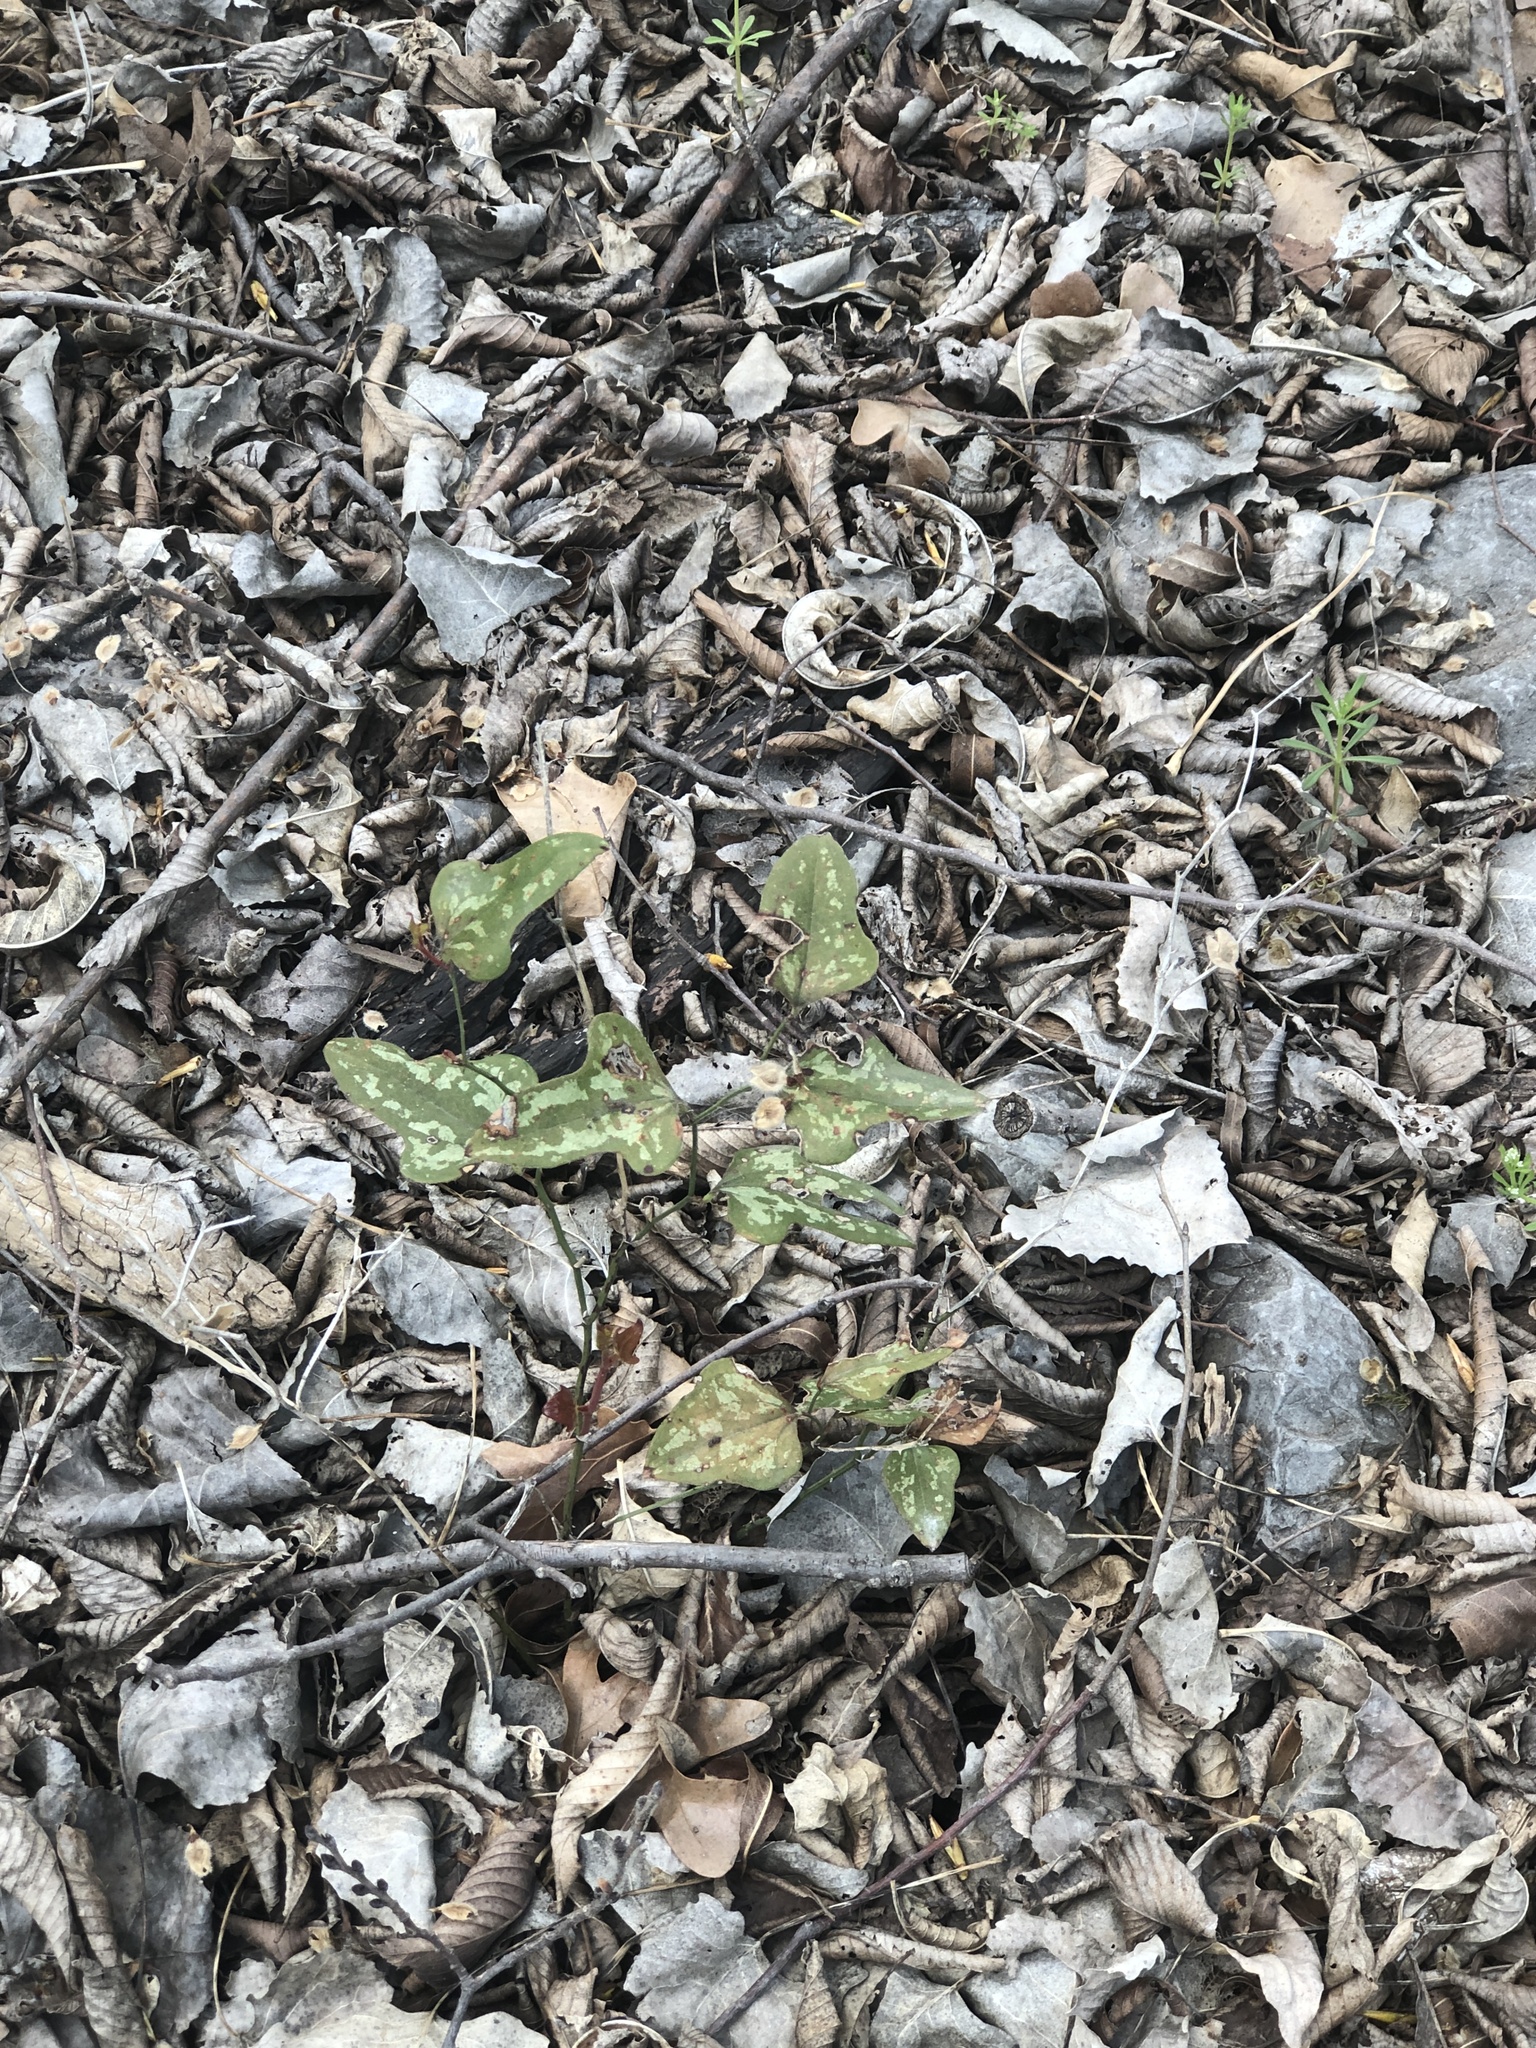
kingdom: Plantae
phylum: Tracheophyta
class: Liliopsida
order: Liliales
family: Smilacaceae
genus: Smilax
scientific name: Smilax bona-nox
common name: Catbrier
